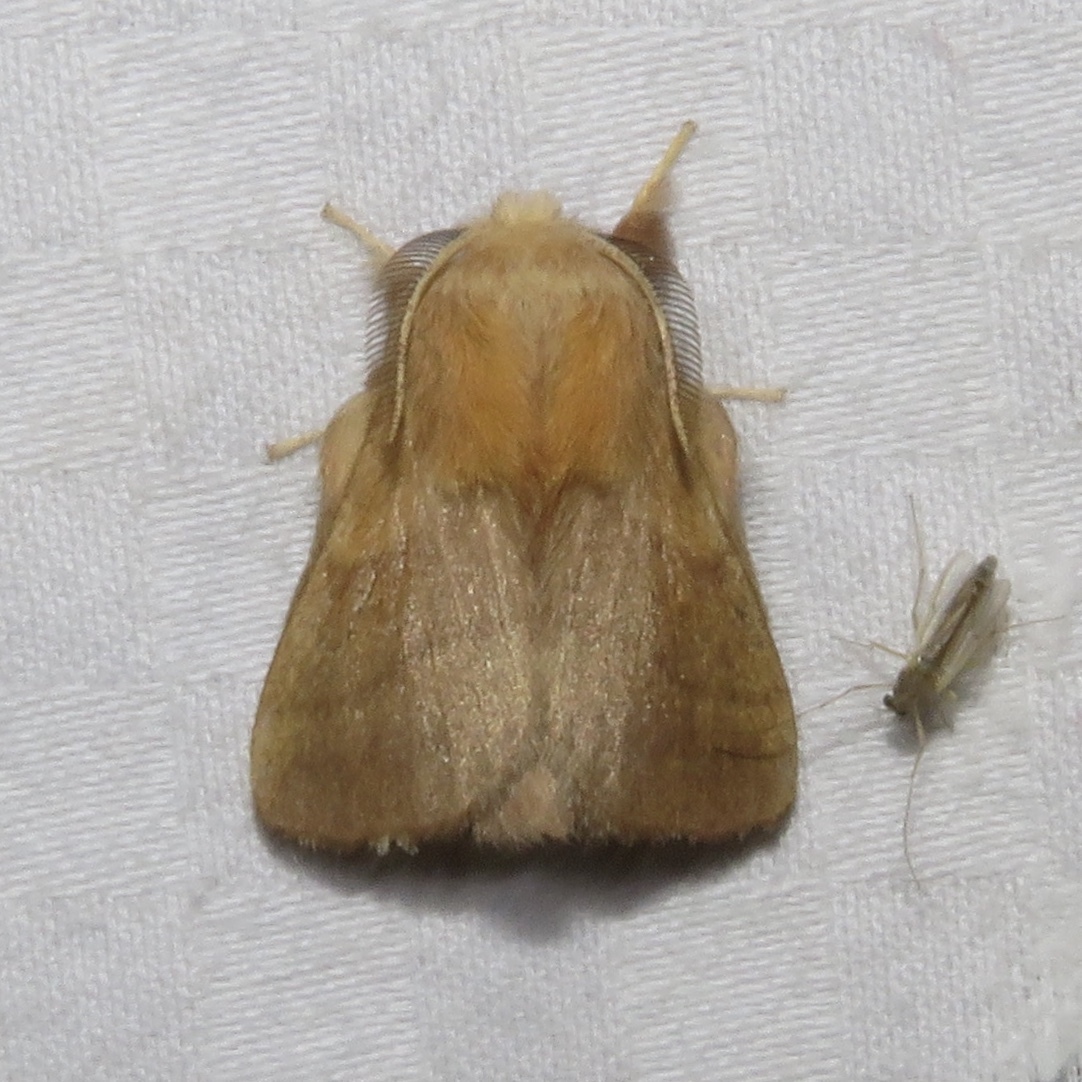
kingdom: Animalia
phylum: Arthropoda
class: Insecta
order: Lepidoptera
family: Lasiocampidae
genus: Malacosoma
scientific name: Malacosoma disstria
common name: Forest tent caterpillar
